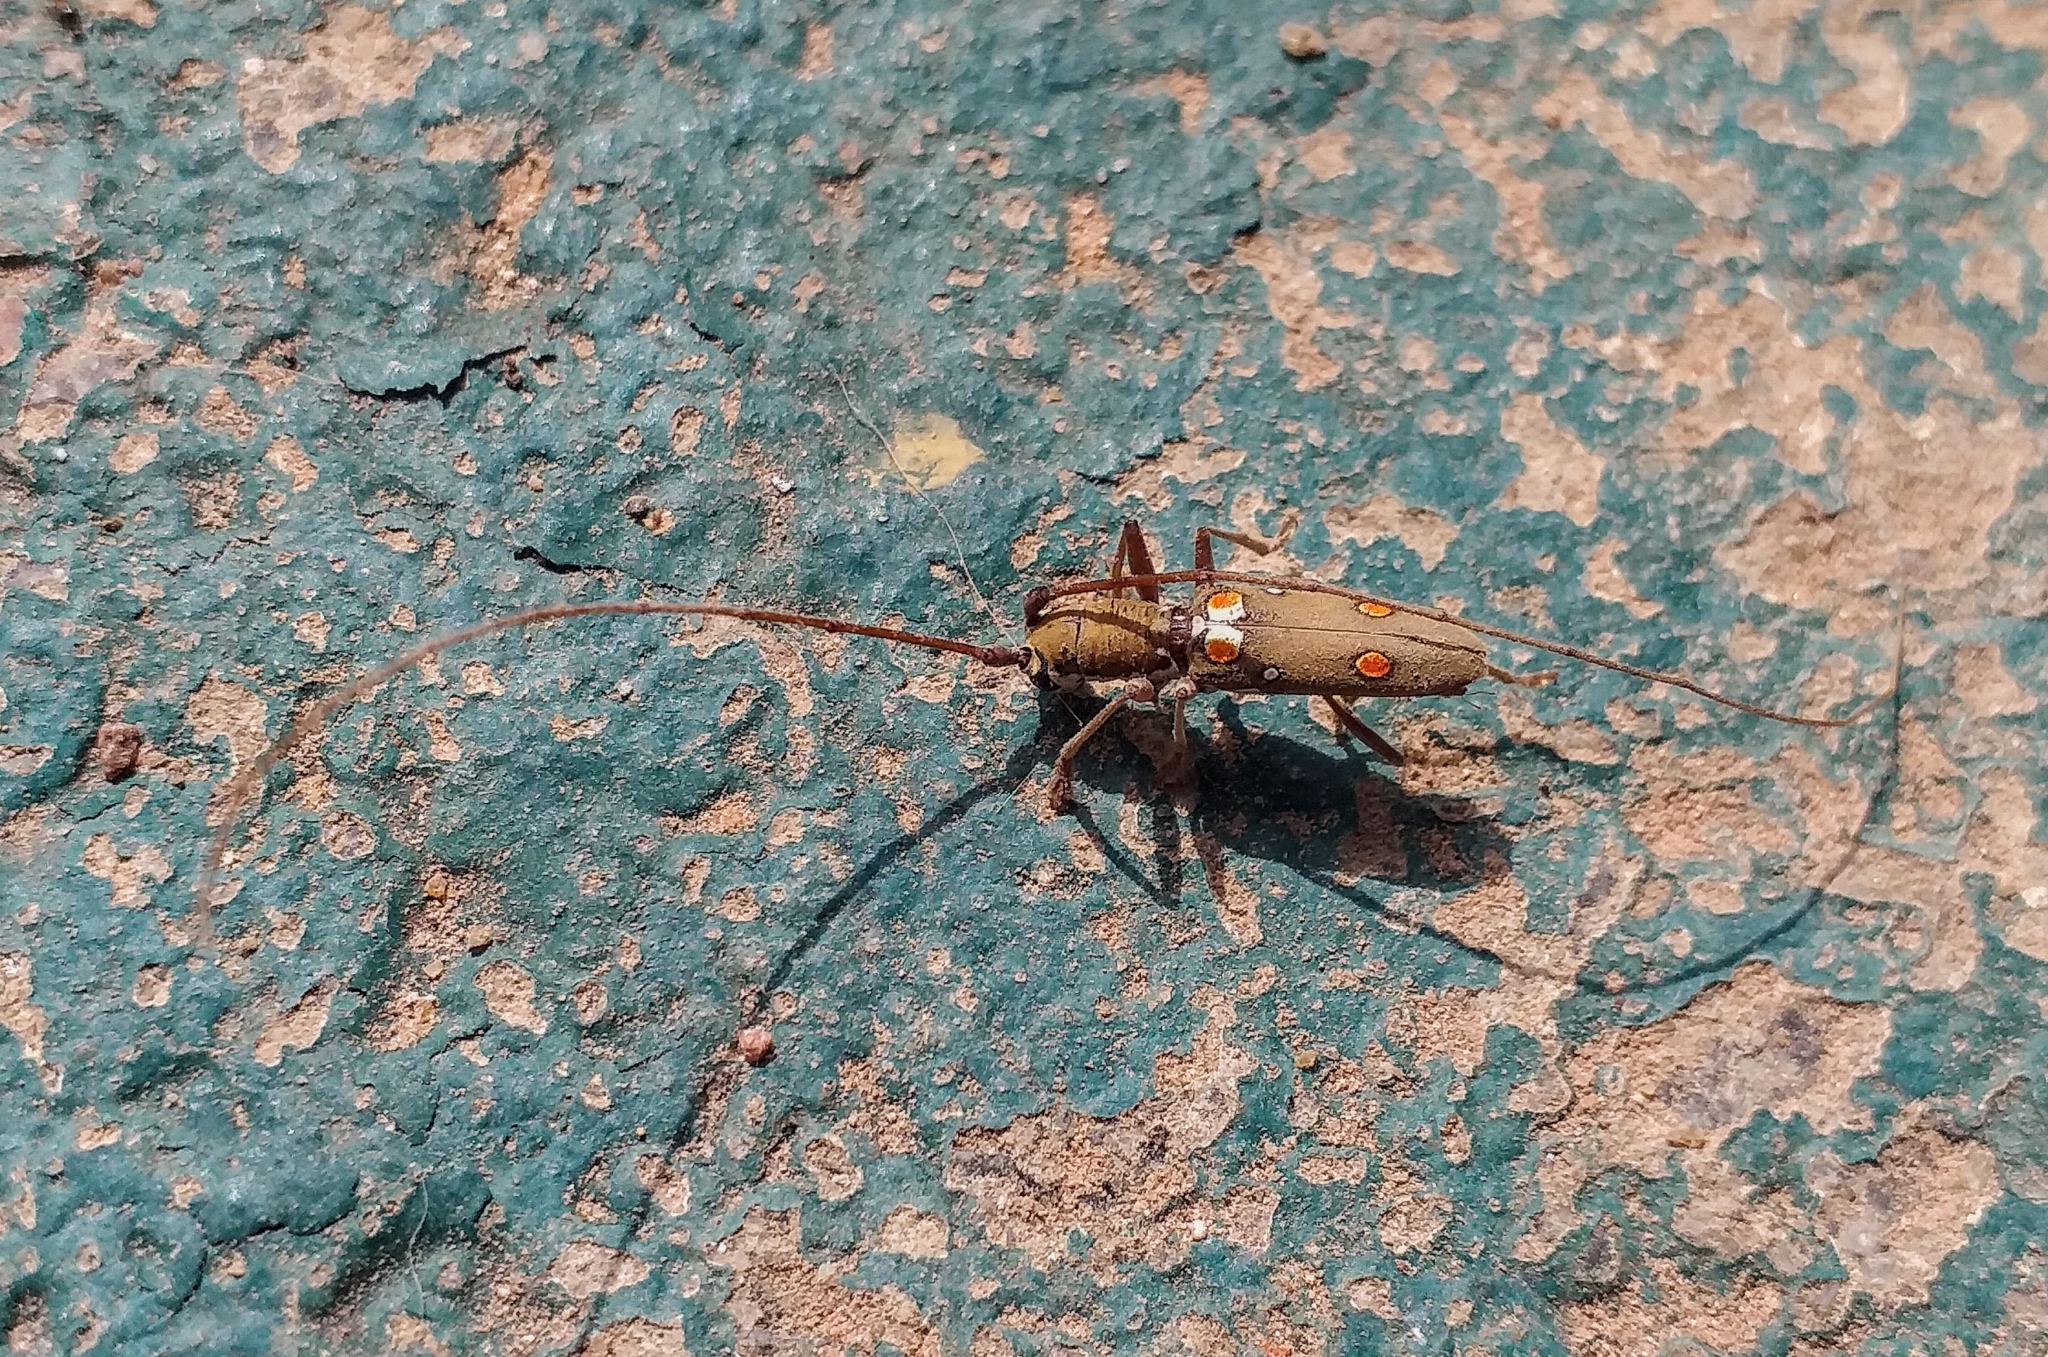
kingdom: Animalia
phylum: Arthropoda
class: Insecta
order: Coleoptera
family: Cerambycidae
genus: Olenecamptus
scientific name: Olenecamptus bilobus
